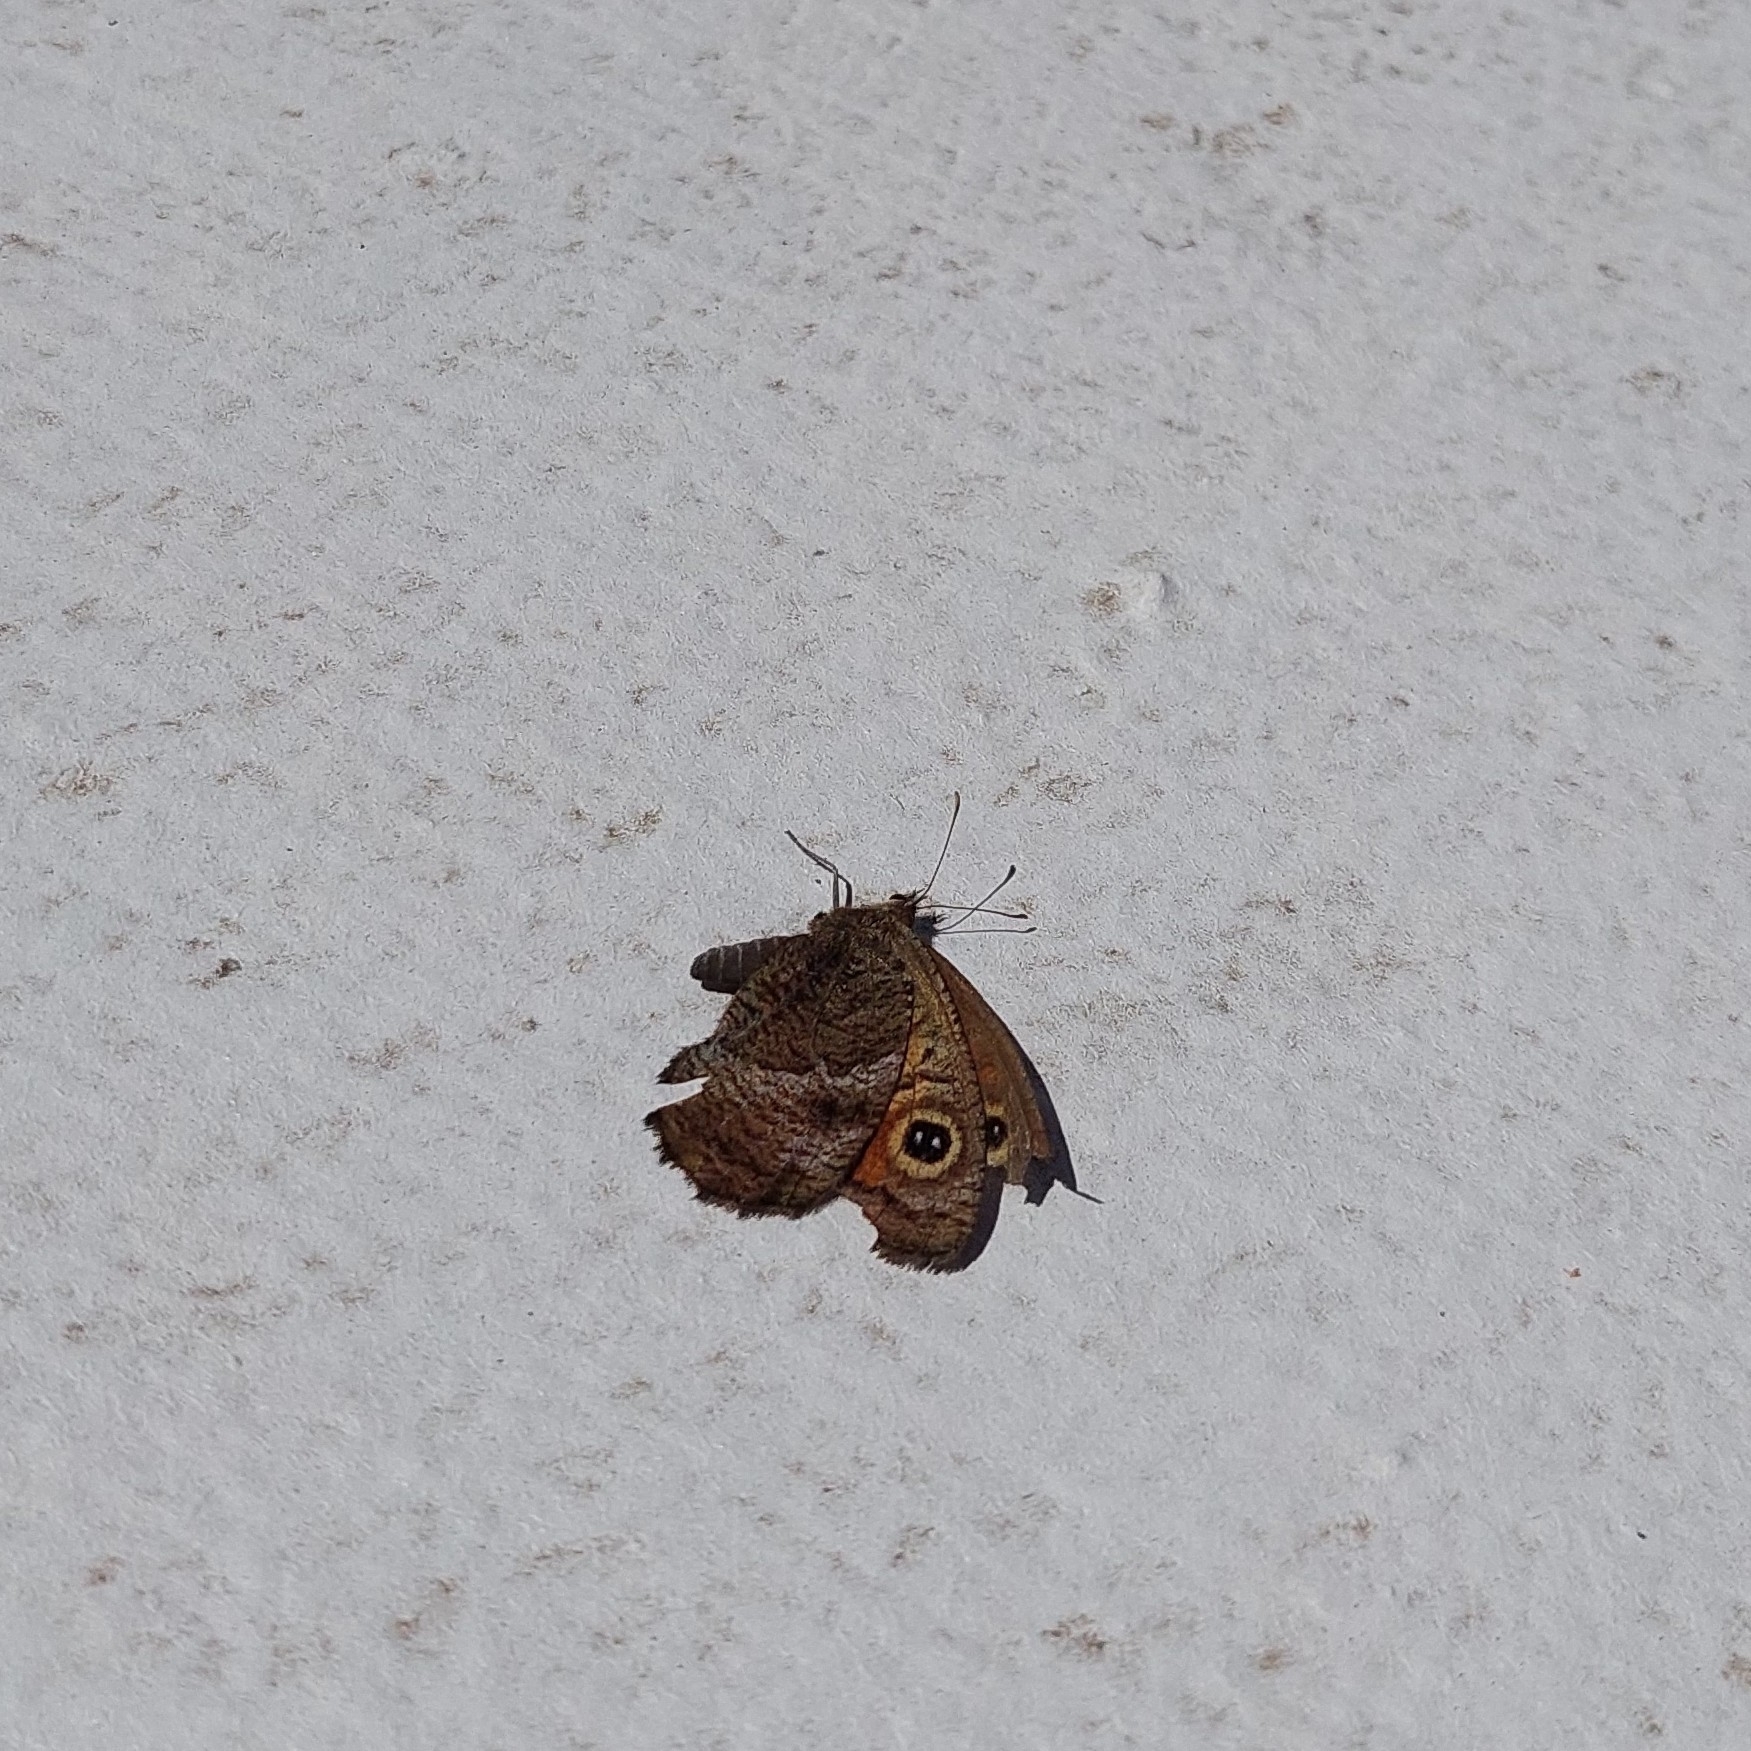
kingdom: Animalia
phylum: Arthropoda
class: Insecta
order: Lepidoptera
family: Nymphalidae
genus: Pampasatyrus
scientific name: Pampasatyrus quies
